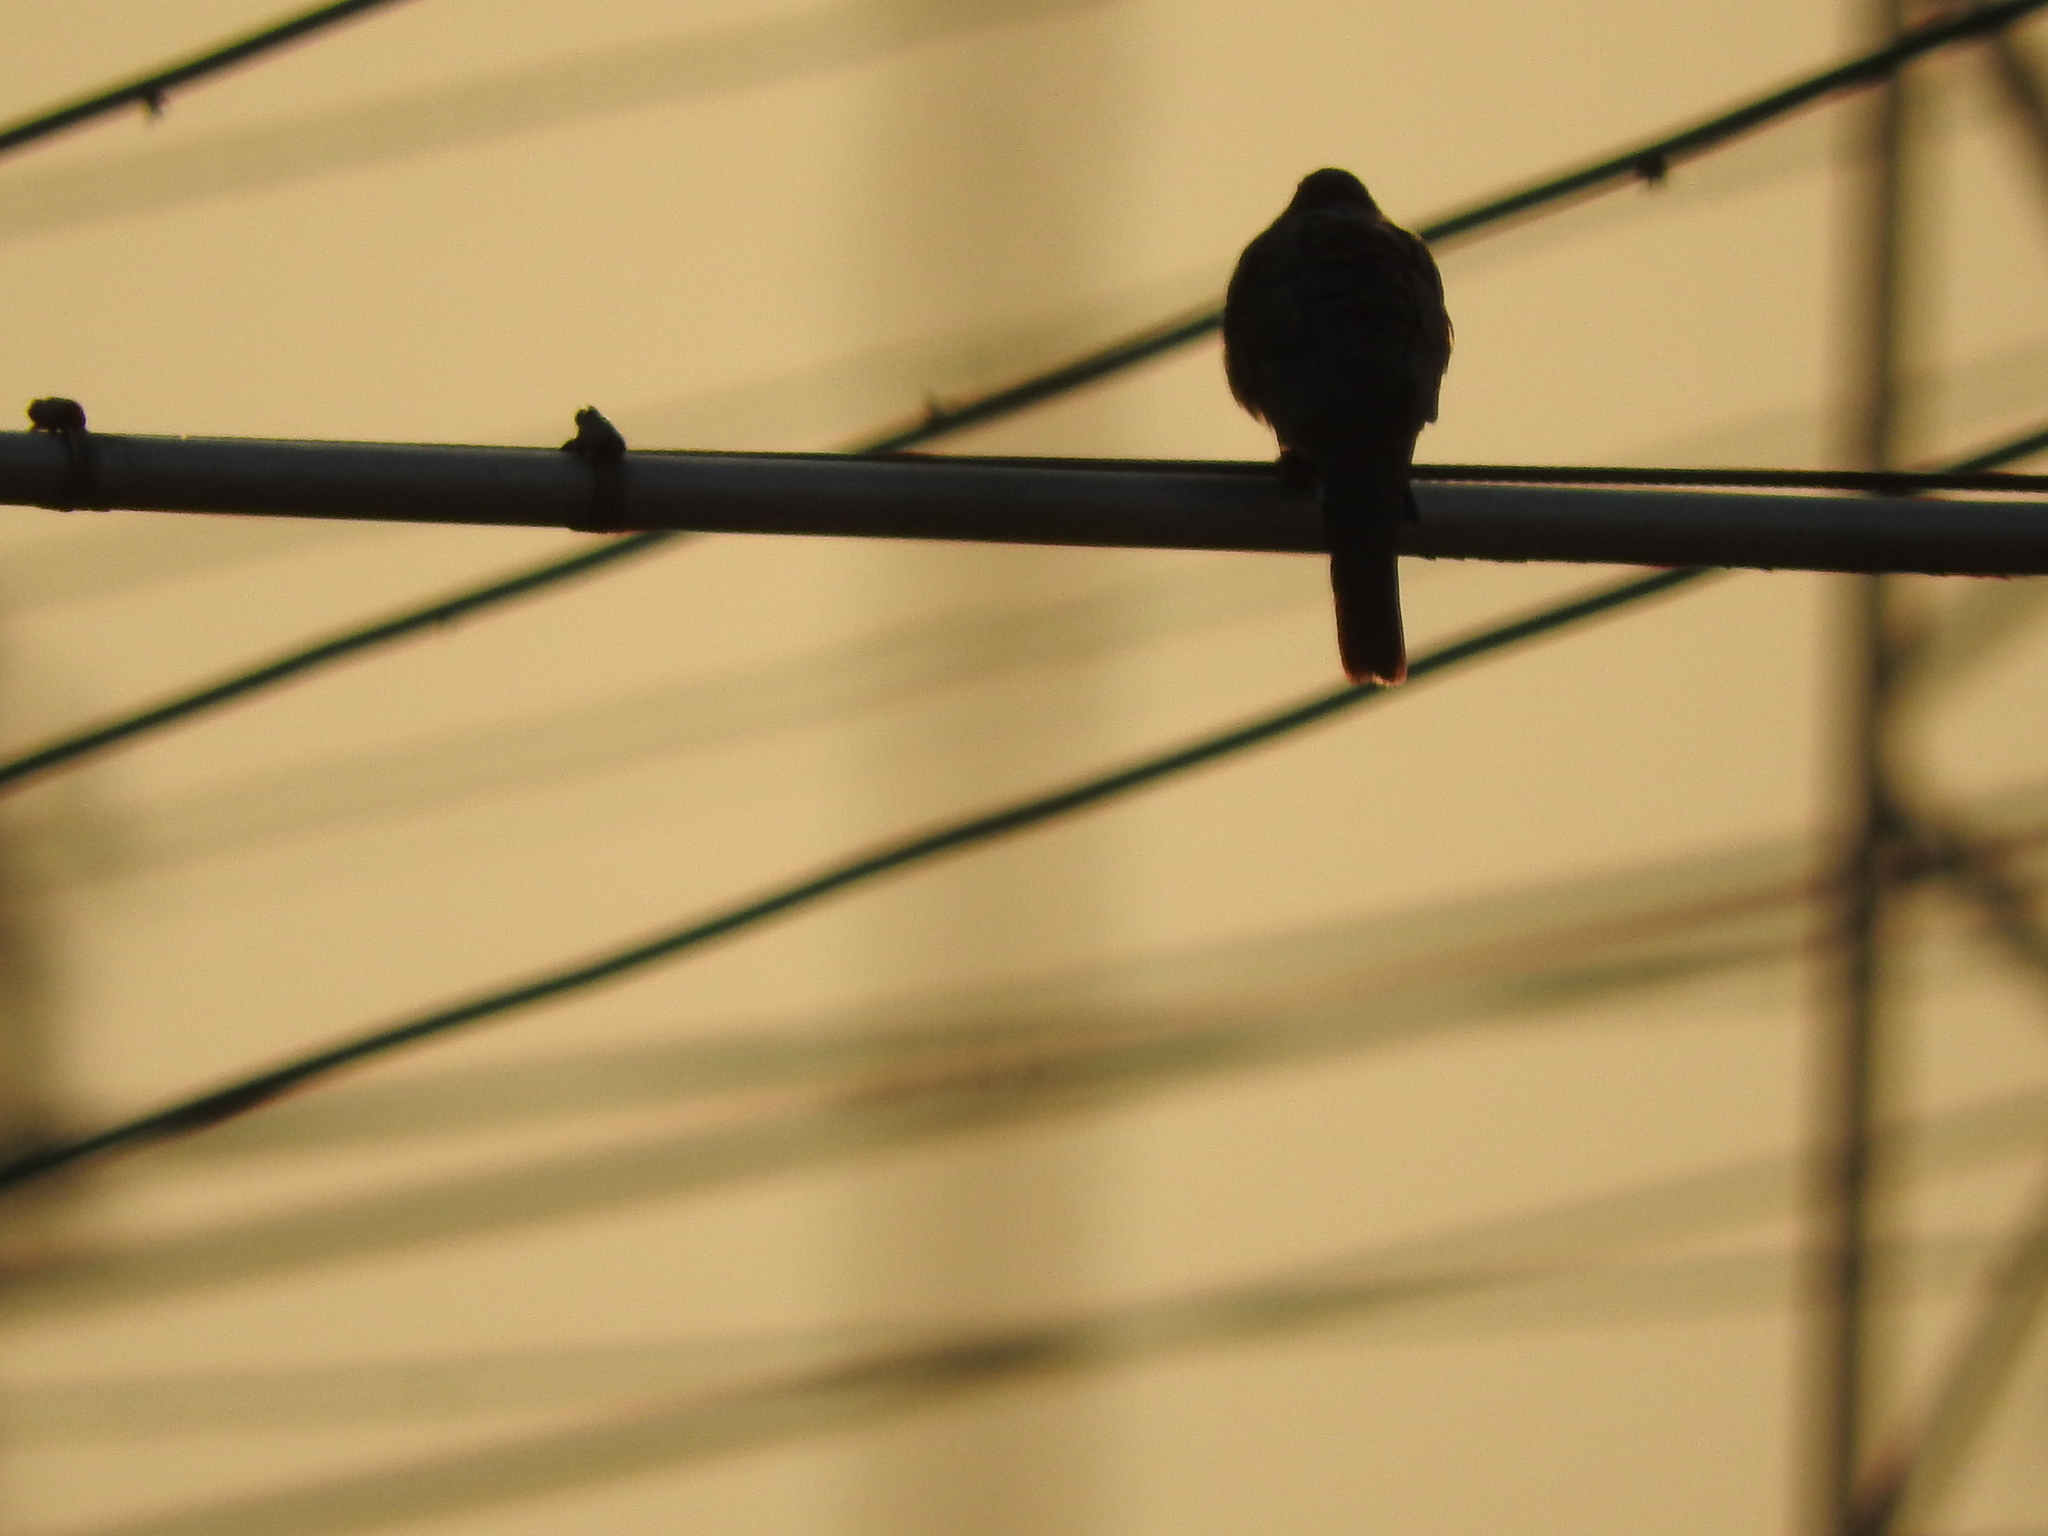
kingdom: Animalia
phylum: Chordata
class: Aves
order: Columbiformes
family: Columbidae
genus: Columbina
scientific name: Columbina inca
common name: Inca dove
